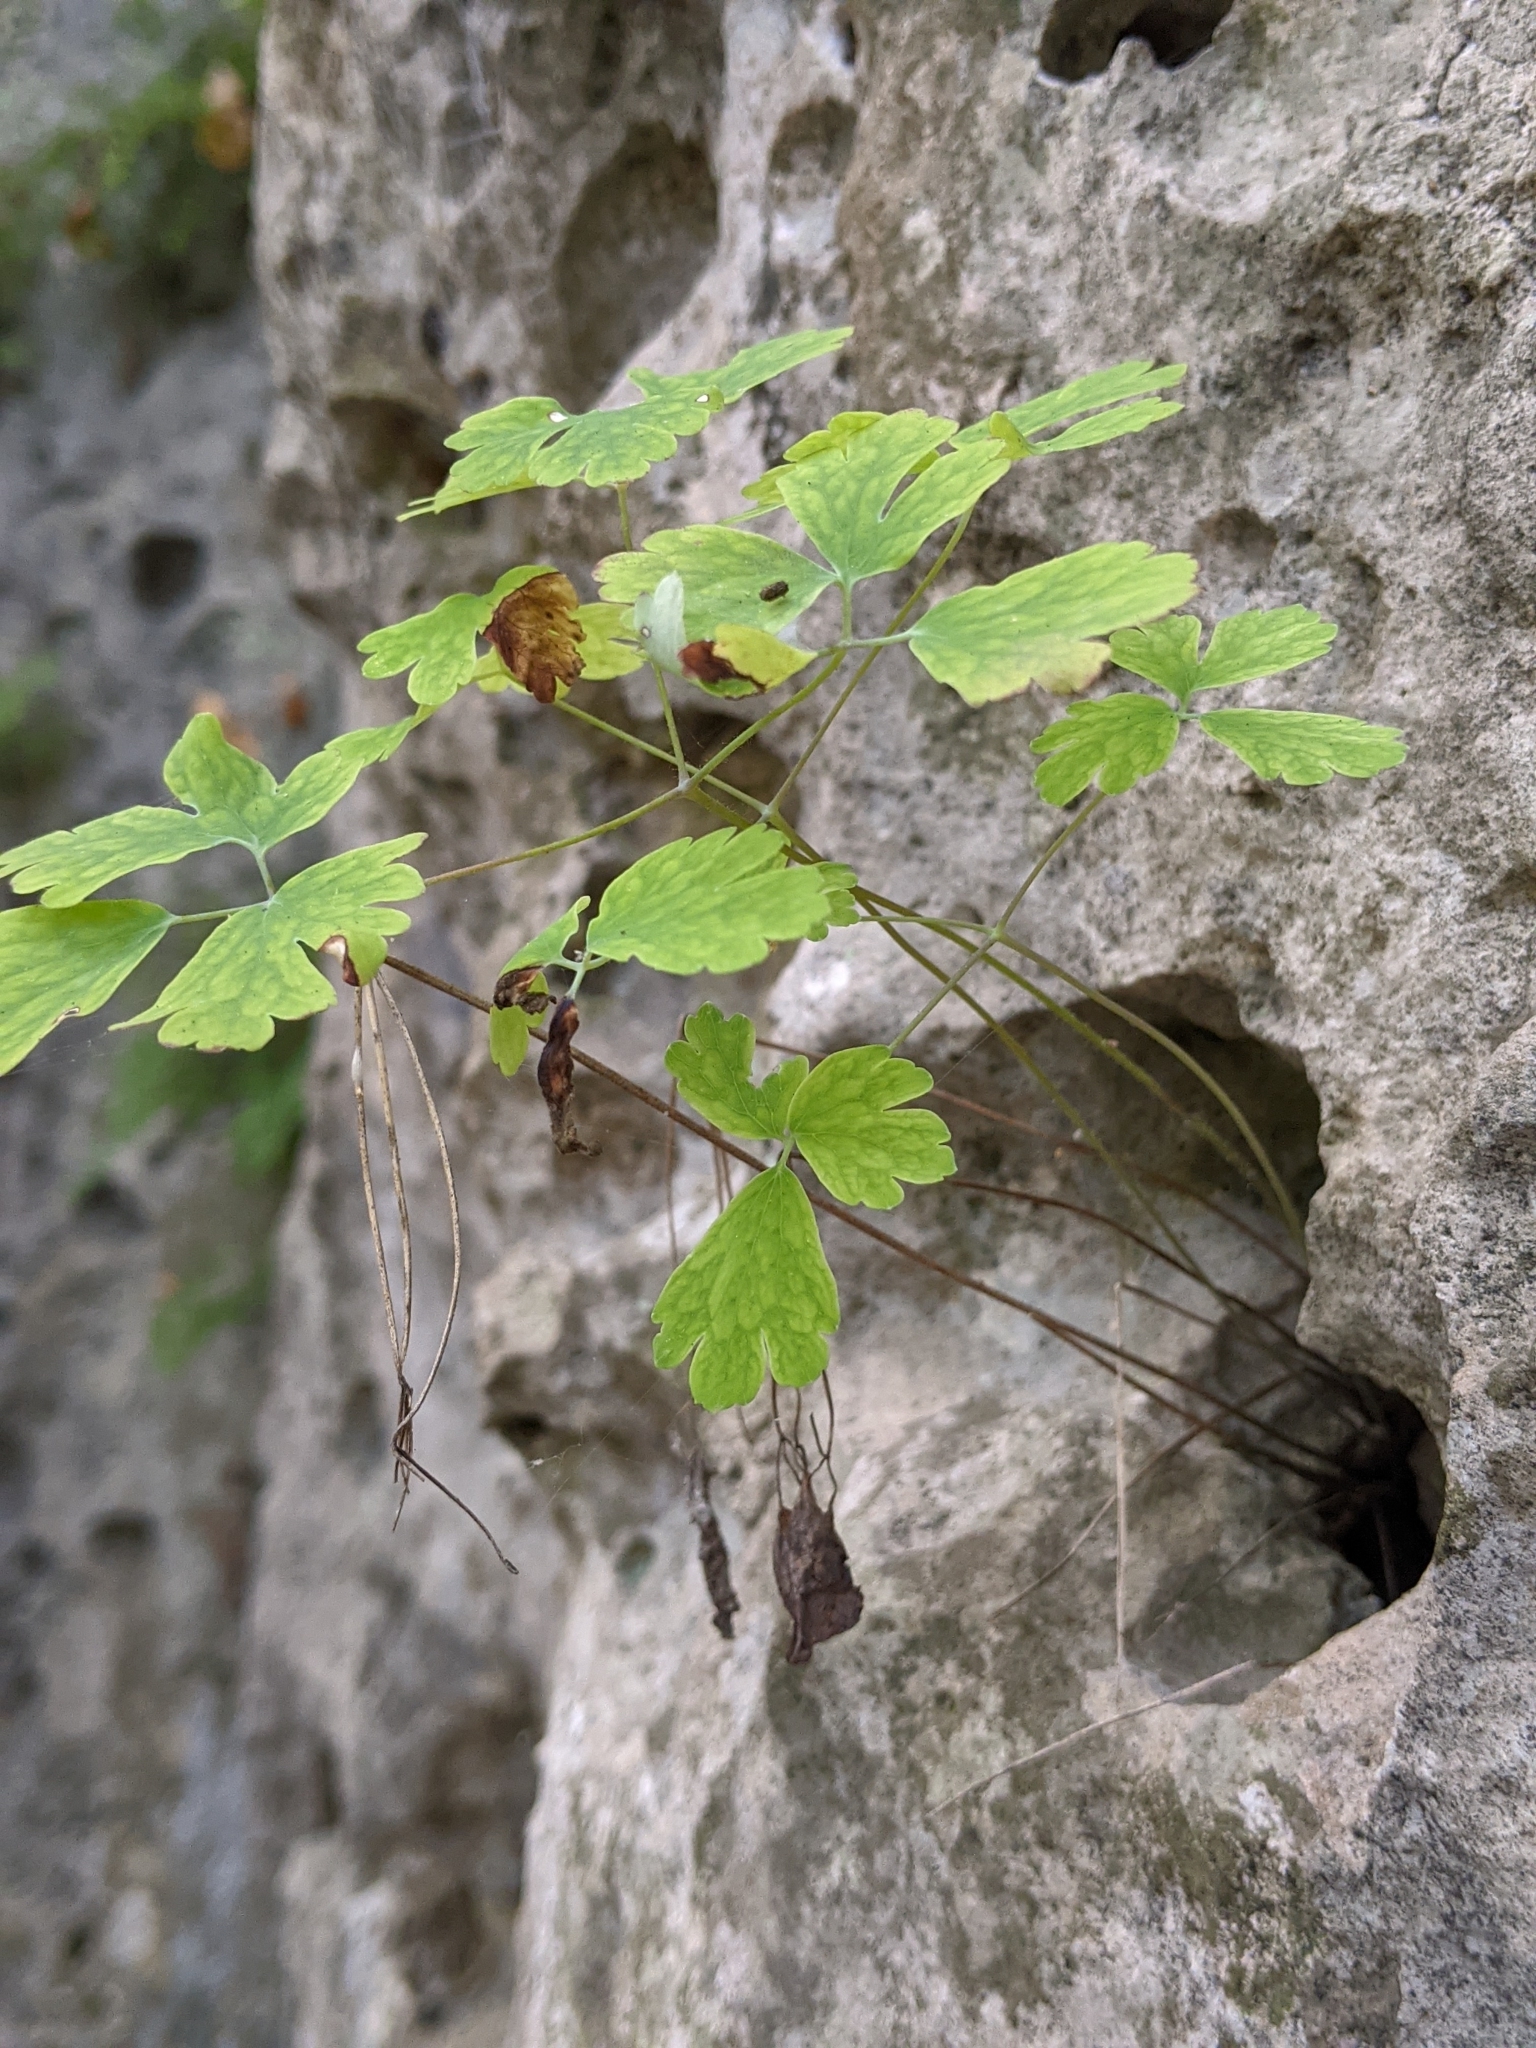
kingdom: Plantae
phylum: Tracheophyta
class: Magnoliopsida
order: Ranunculales
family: Ranunculaceae
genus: Aquilegia
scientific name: Aquilegia canadensis
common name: American columbine
